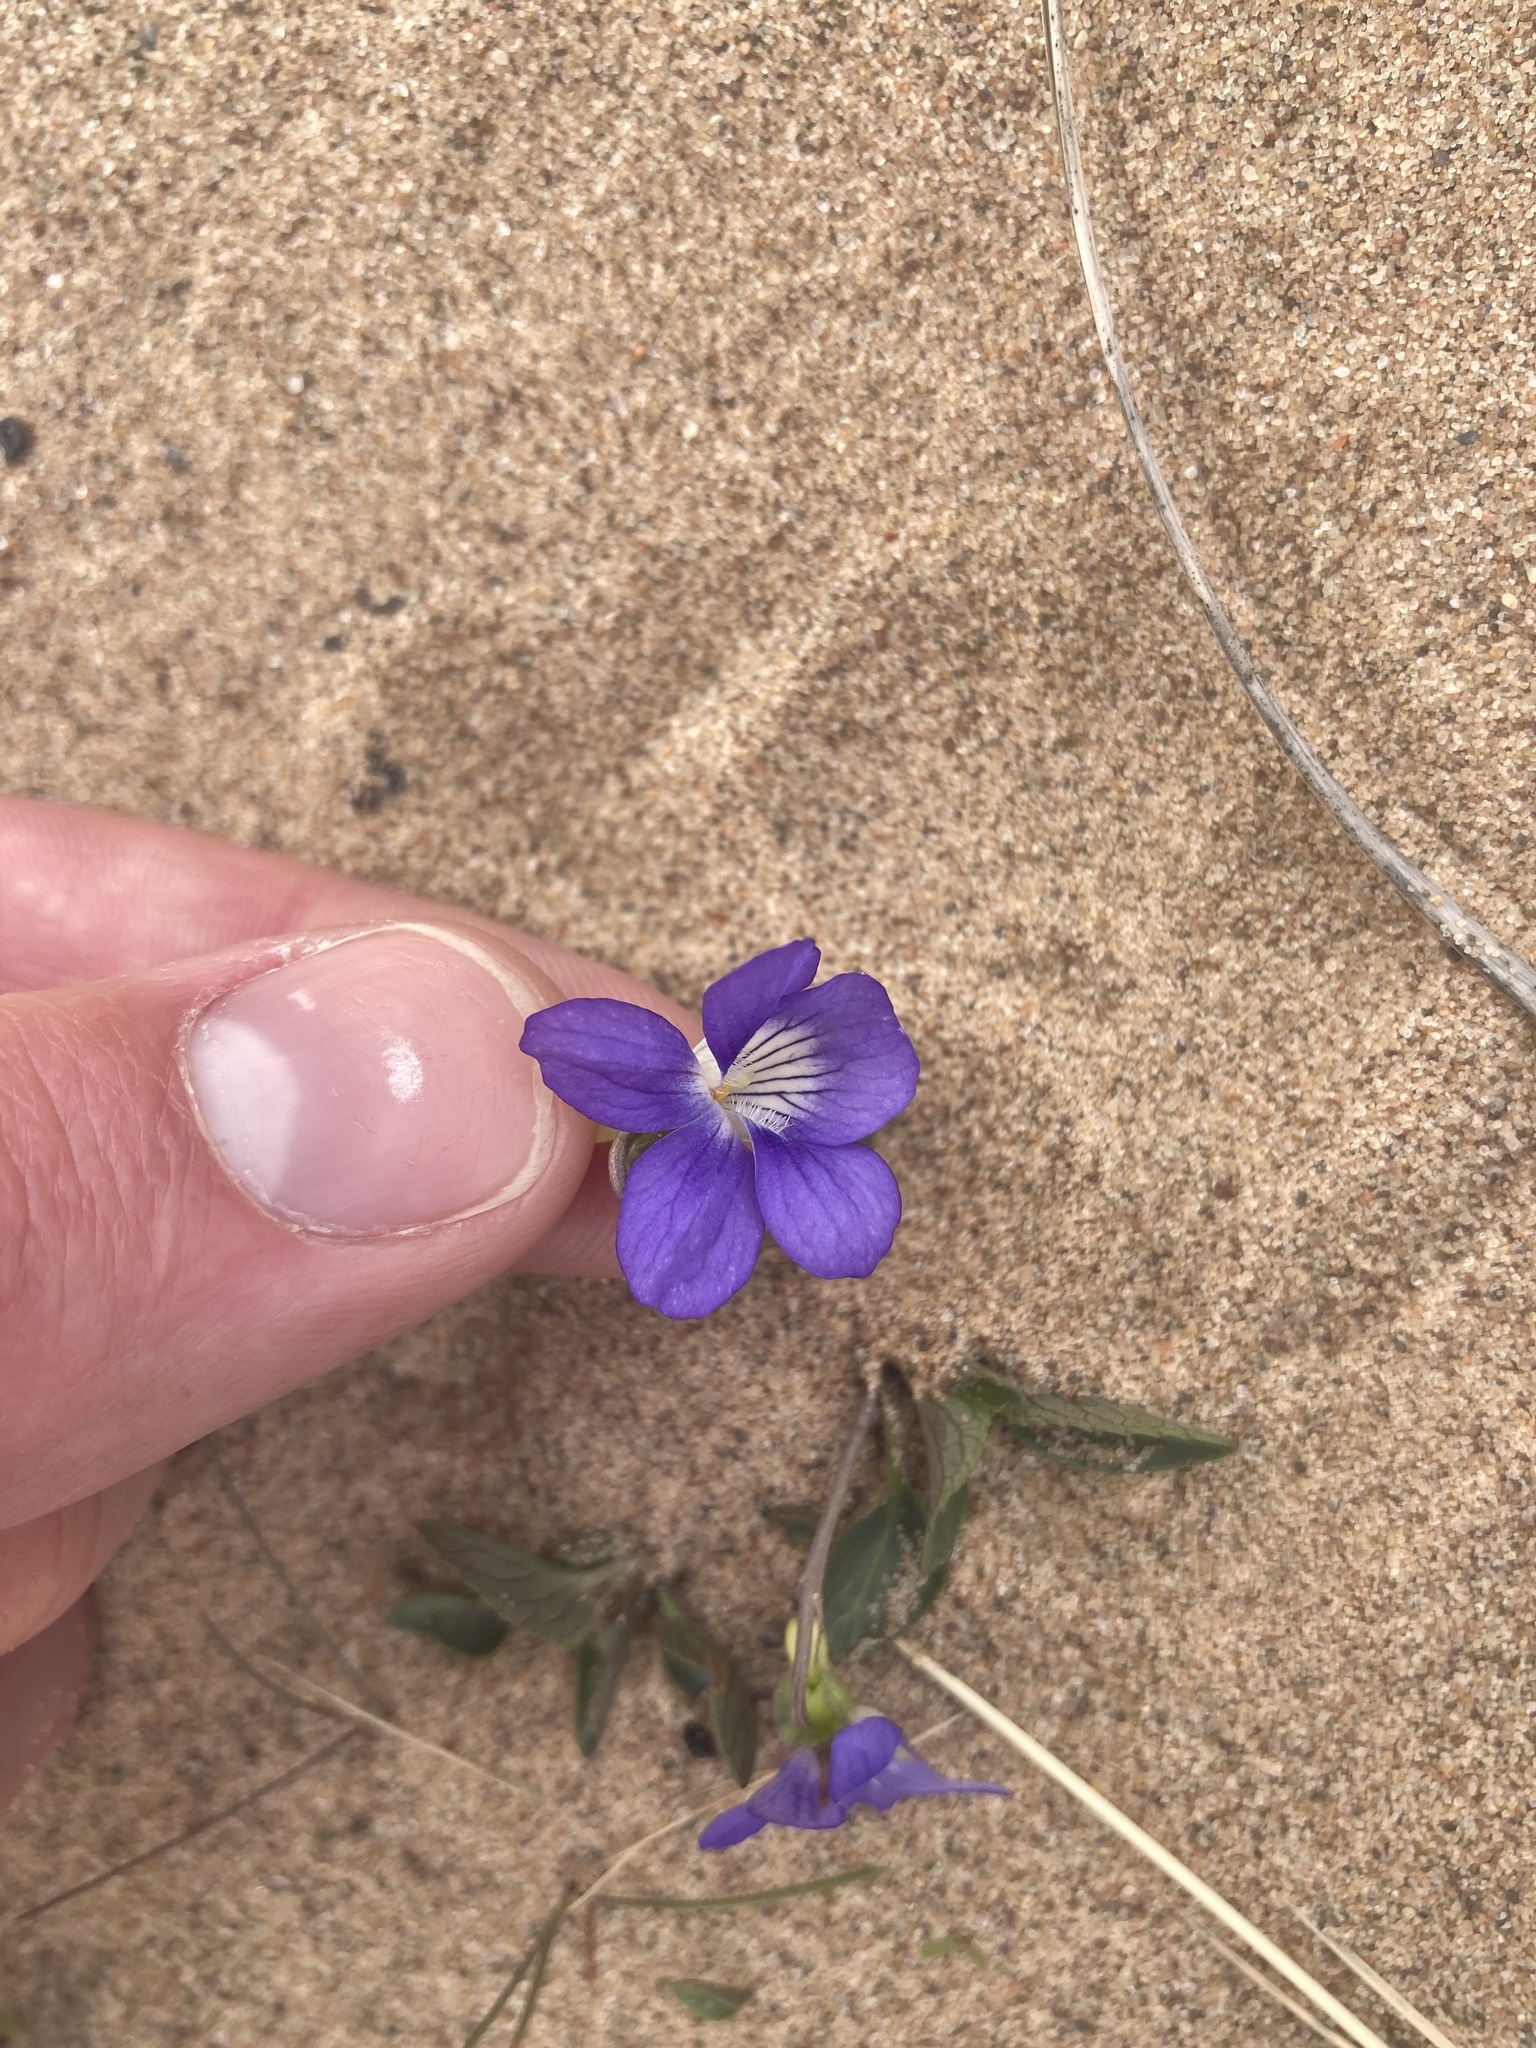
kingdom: Plantae
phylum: Tracheophyta
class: Magnoliopsida
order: Malpighiales
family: Violaceae
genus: Viola
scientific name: Viola riviniana
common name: Common dog-violet
